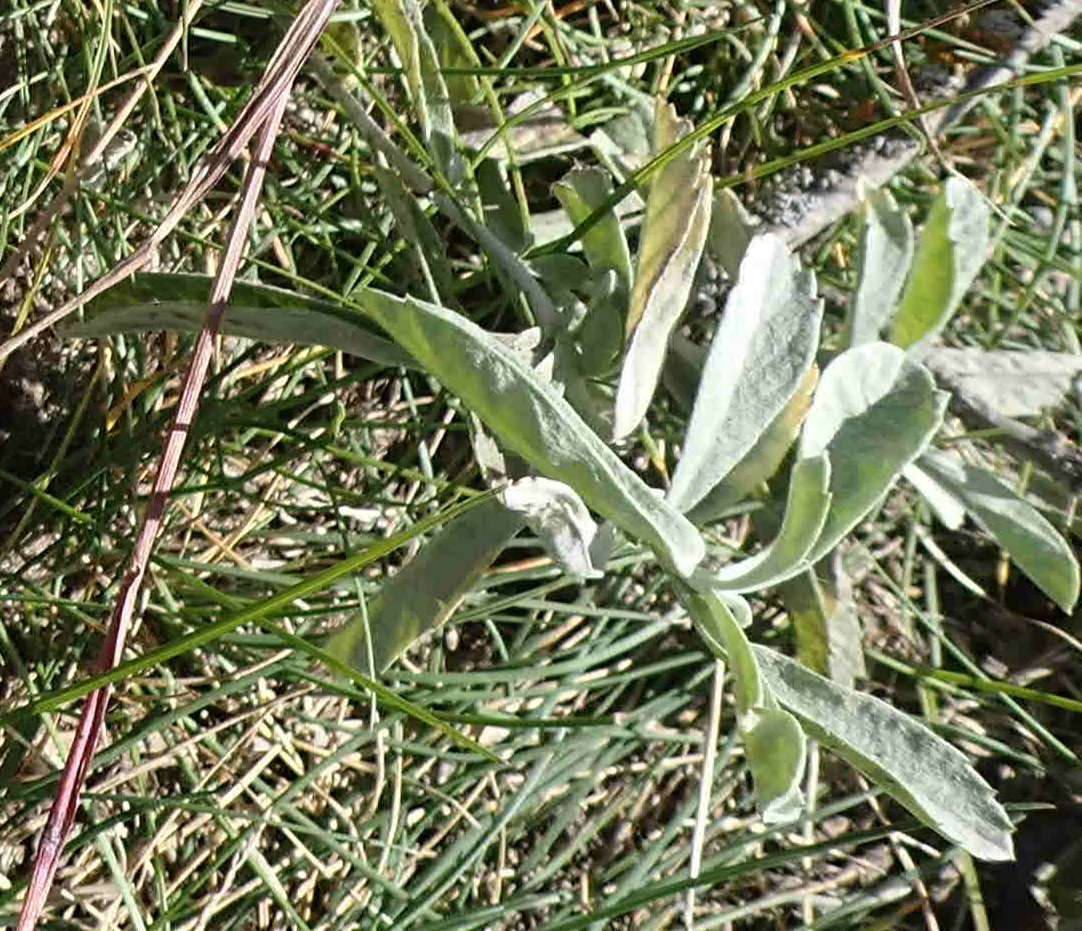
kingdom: Plantae
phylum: Tracheophyta
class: Magnoliopsida
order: Asterales
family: Asteraceae
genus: Artemisia
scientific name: Artemisia ludoviciana
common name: Western mugwort
